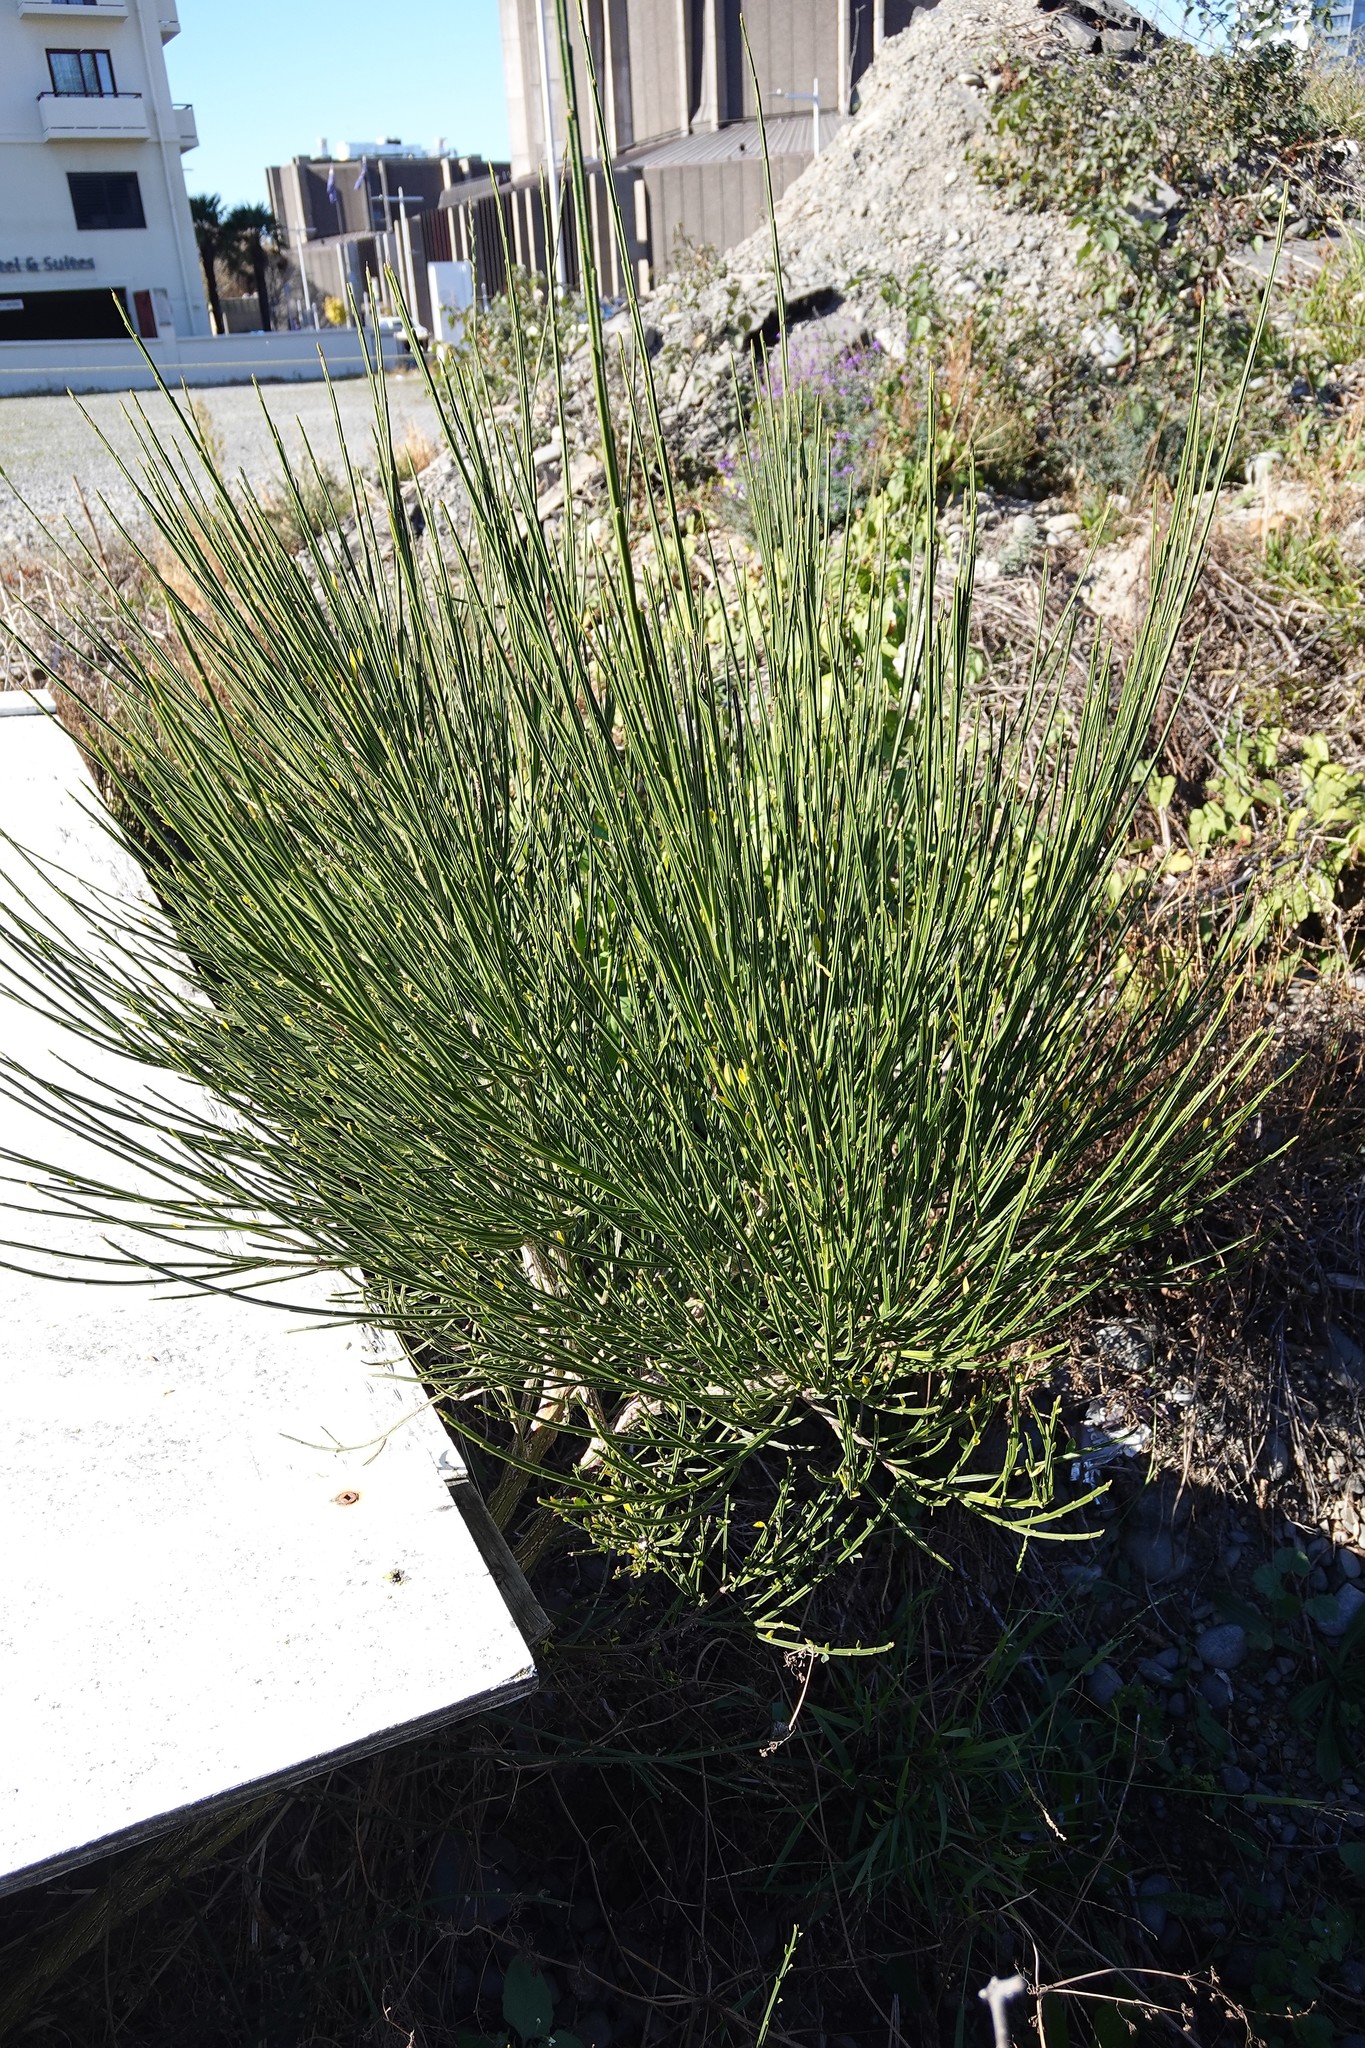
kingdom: Plantae
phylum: Tracheophyta
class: Magnoliopsida
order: Fabales
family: Fabaceae
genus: Cytisus
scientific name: Cytisus scoparius
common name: Scotch broom
